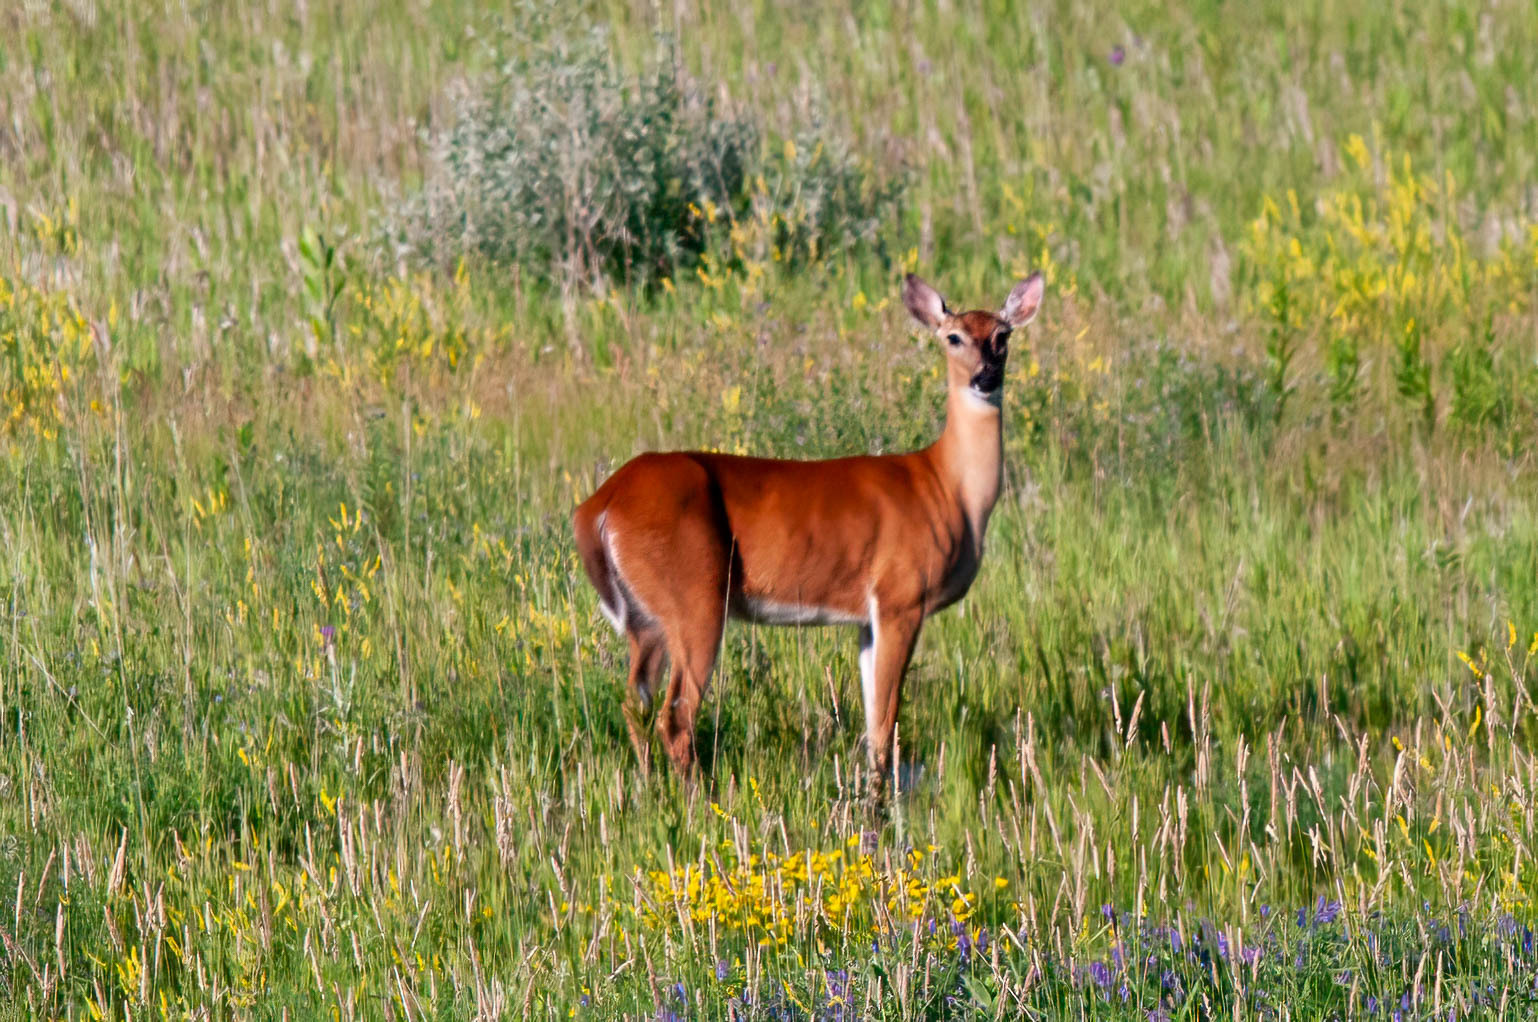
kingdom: Animalia
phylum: Chordata
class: Mammalia
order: Artiodactyla
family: Cervidae
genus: Odocoileus
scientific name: Odocoileus virginianus
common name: White-tailed deer
